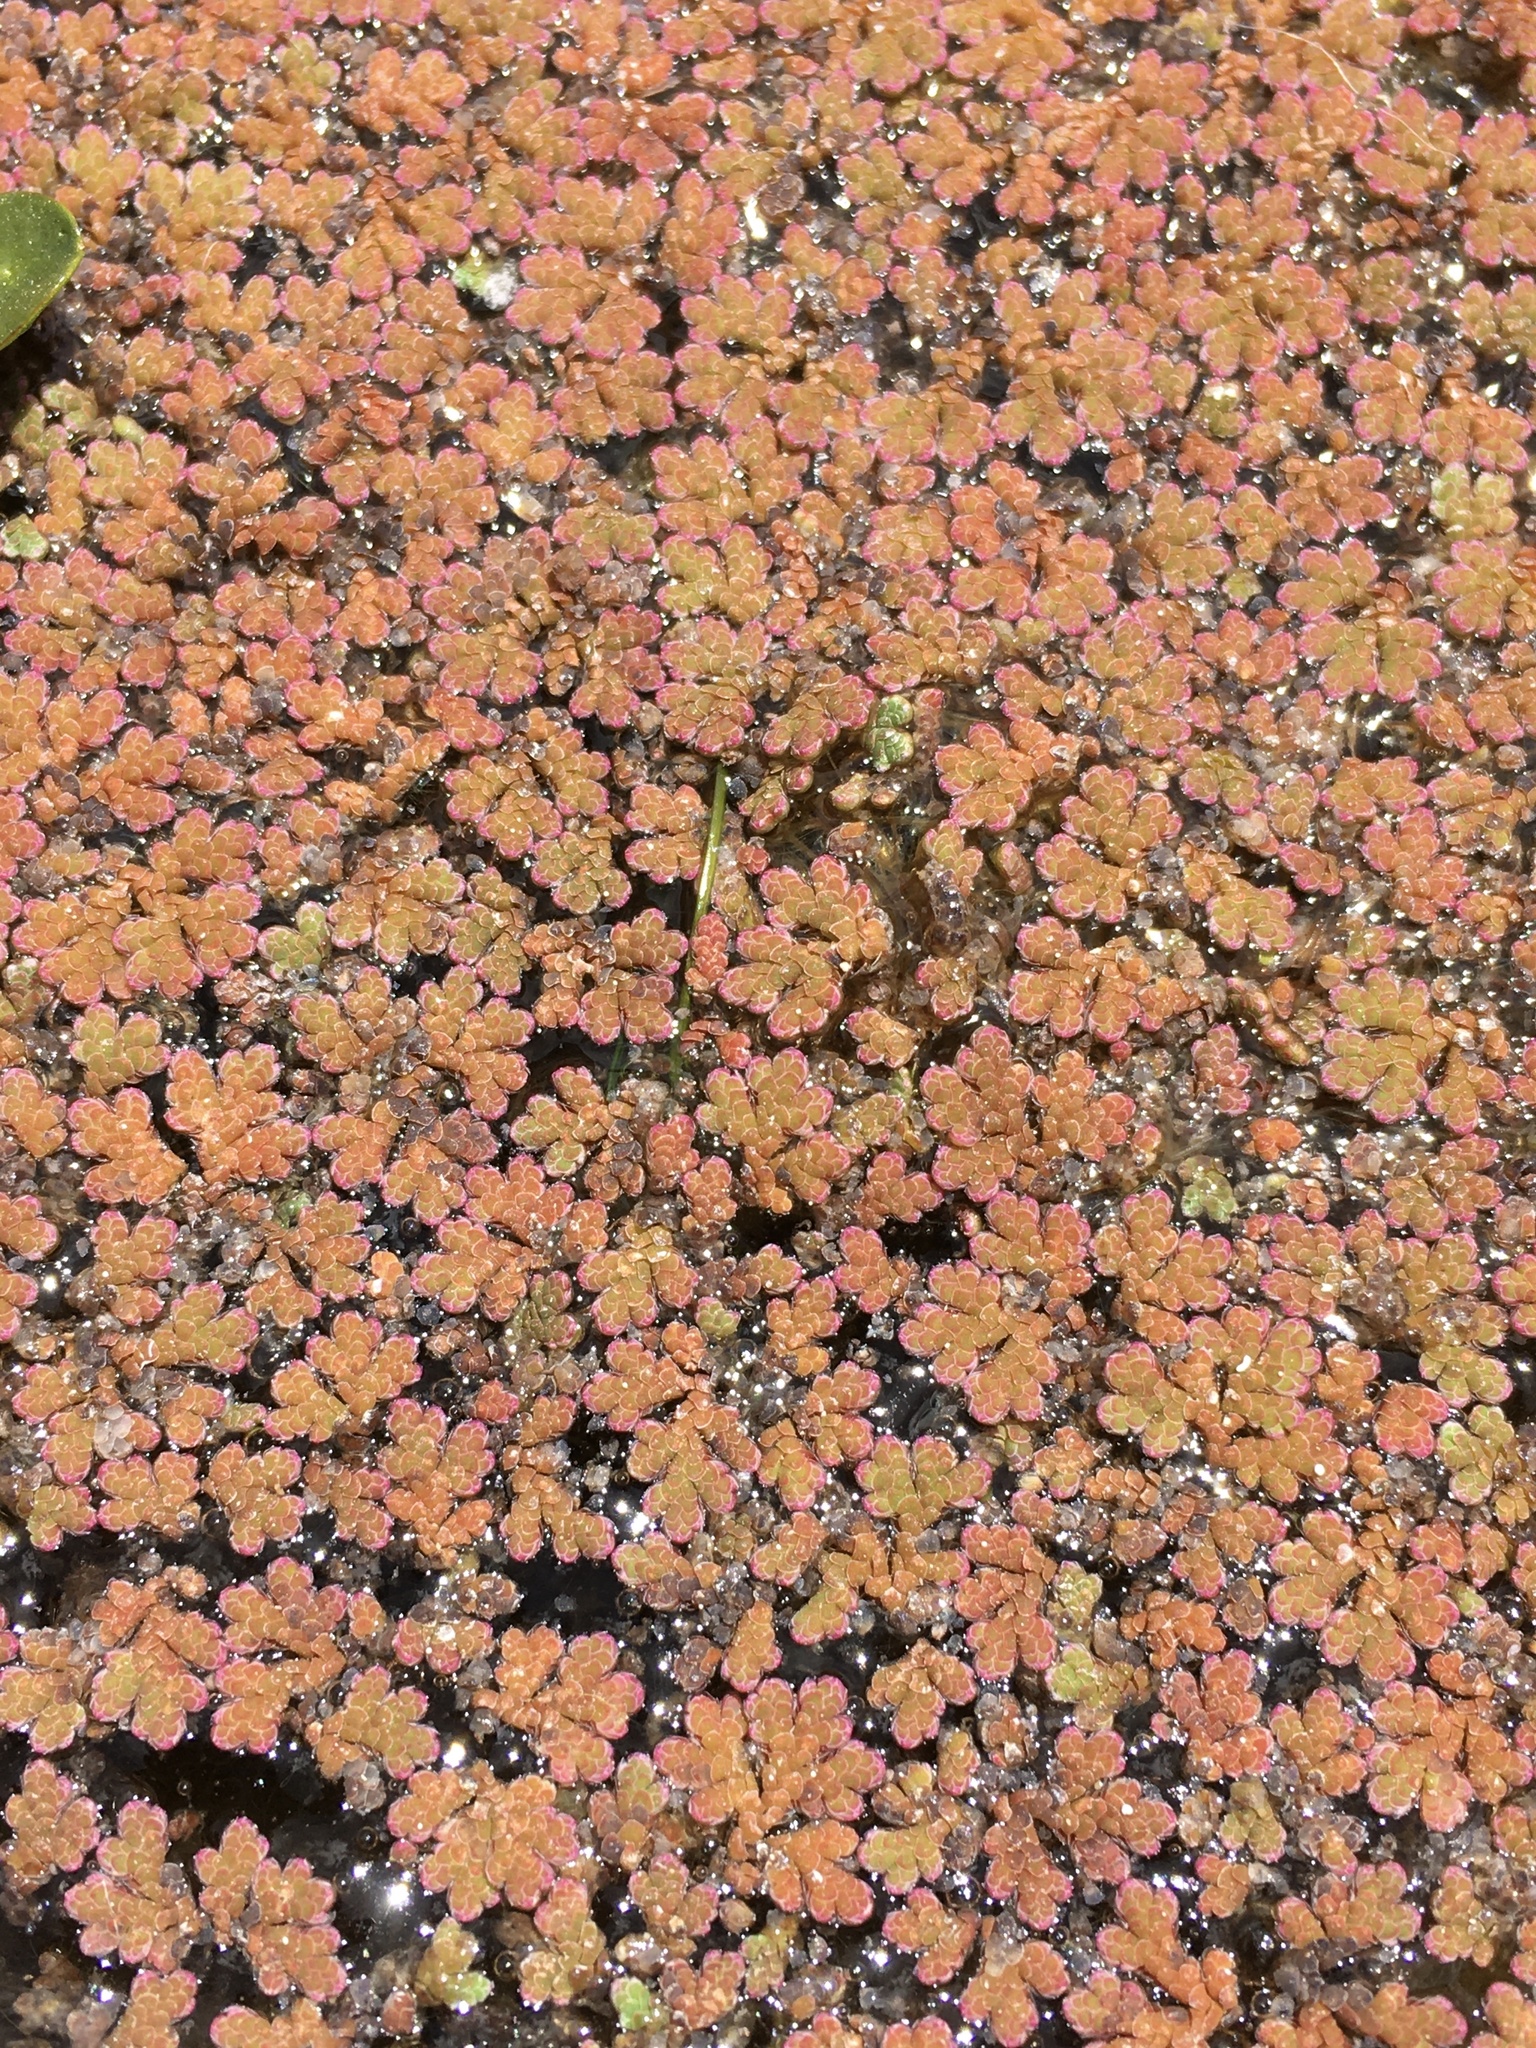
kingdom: Plantae
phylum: Tracheophyta
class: Polypodiopsida
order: Salviniales
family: Salviniaceae
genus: Azolla
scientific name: Azolla filiculoides
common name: Water fern
